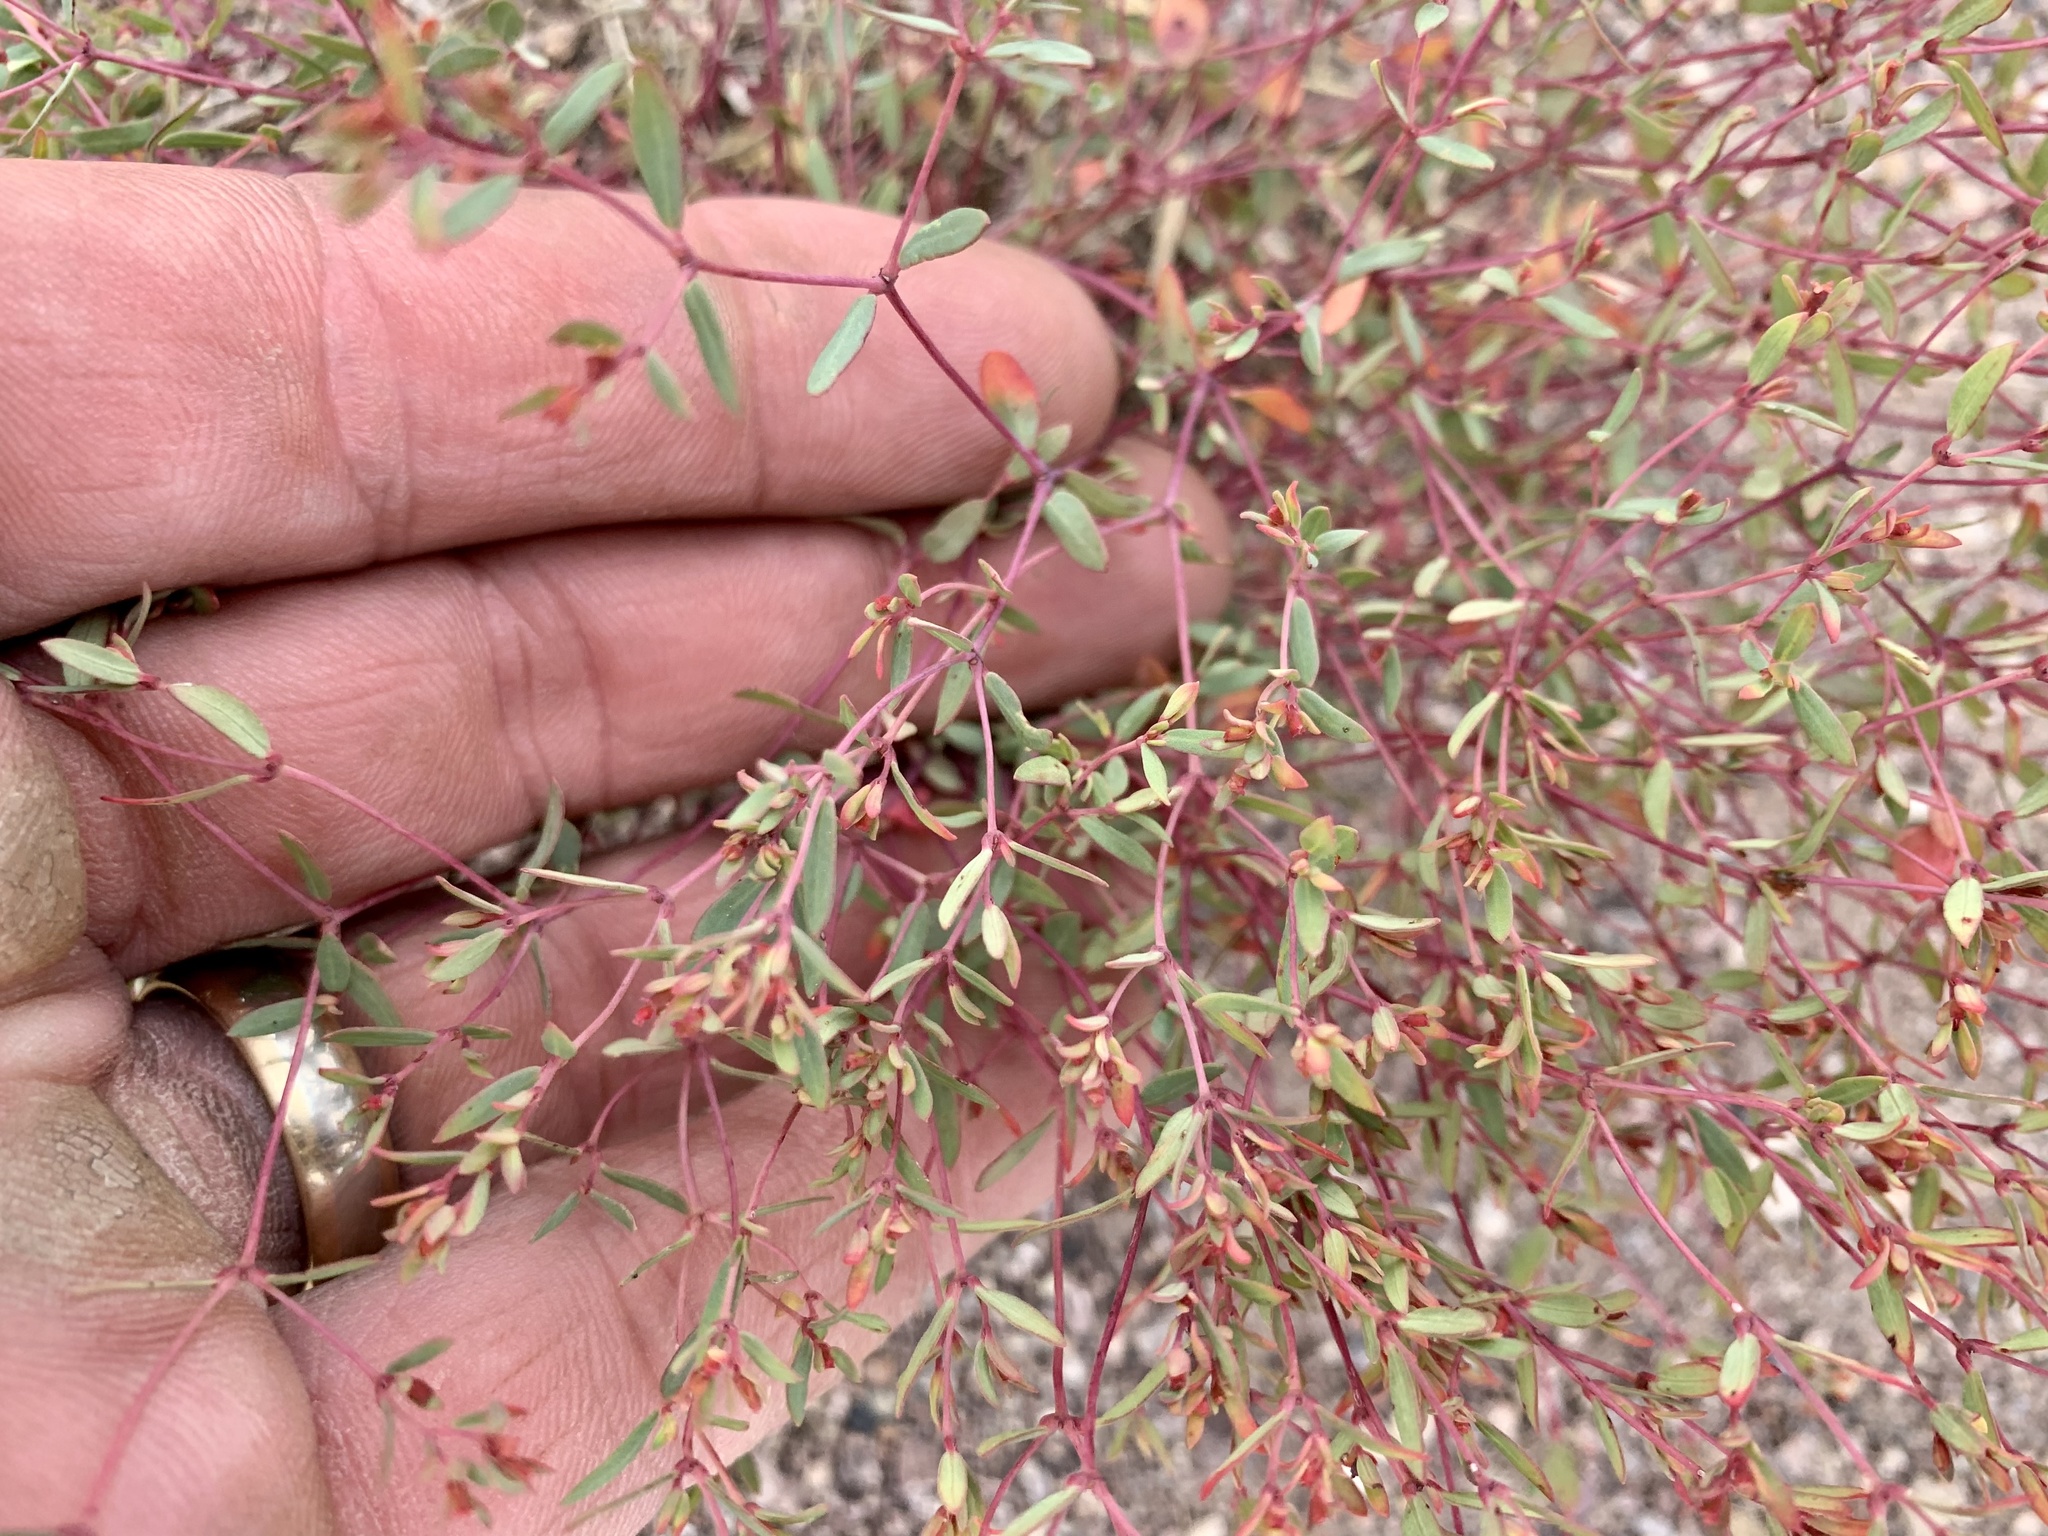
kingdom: Plantae
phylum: Tracheophyta
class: Magnoliopsida
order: Malpighiales
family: Euphorbiaceae
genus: Euphorbia
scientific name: Euphorbia chaetocalyx
